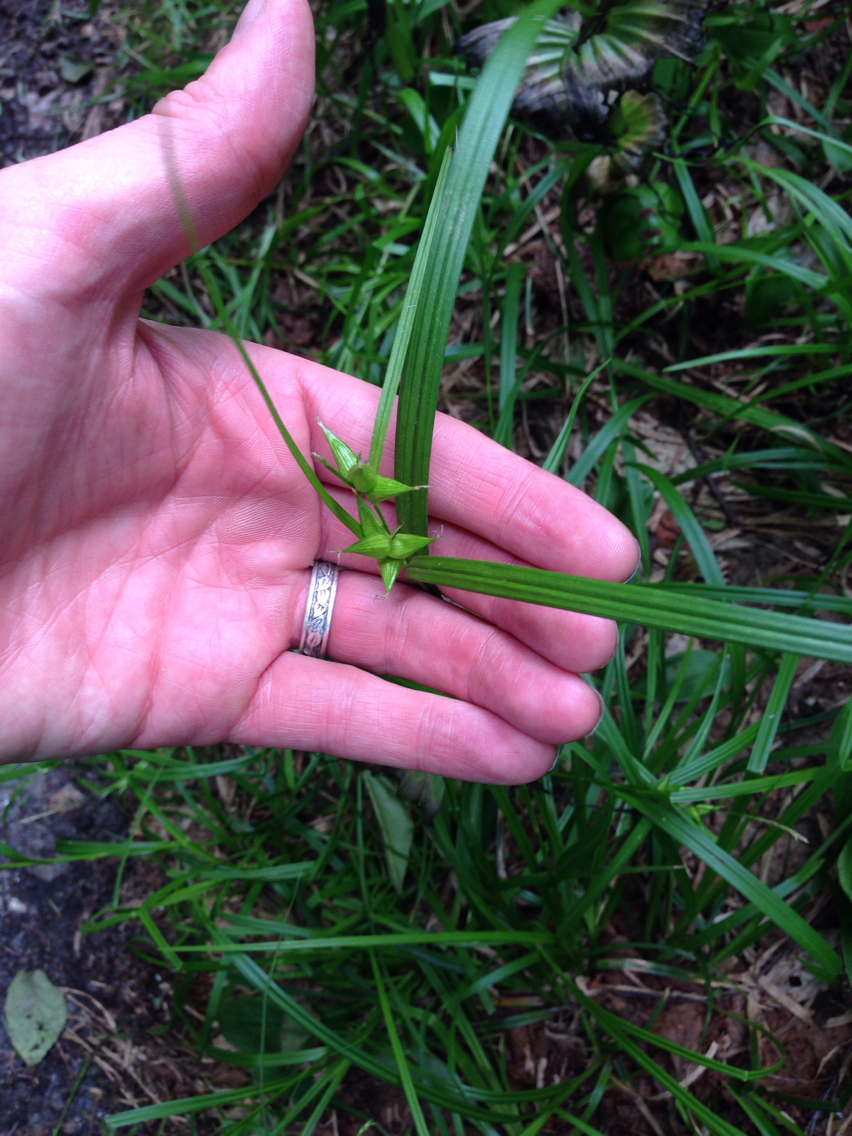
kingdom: Plantae
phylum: Tracheophyta
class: Liliopsida
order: Poales
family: Cyperaceae
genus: Carex
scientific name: Carex intumescens
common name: Greater bladder sedge
